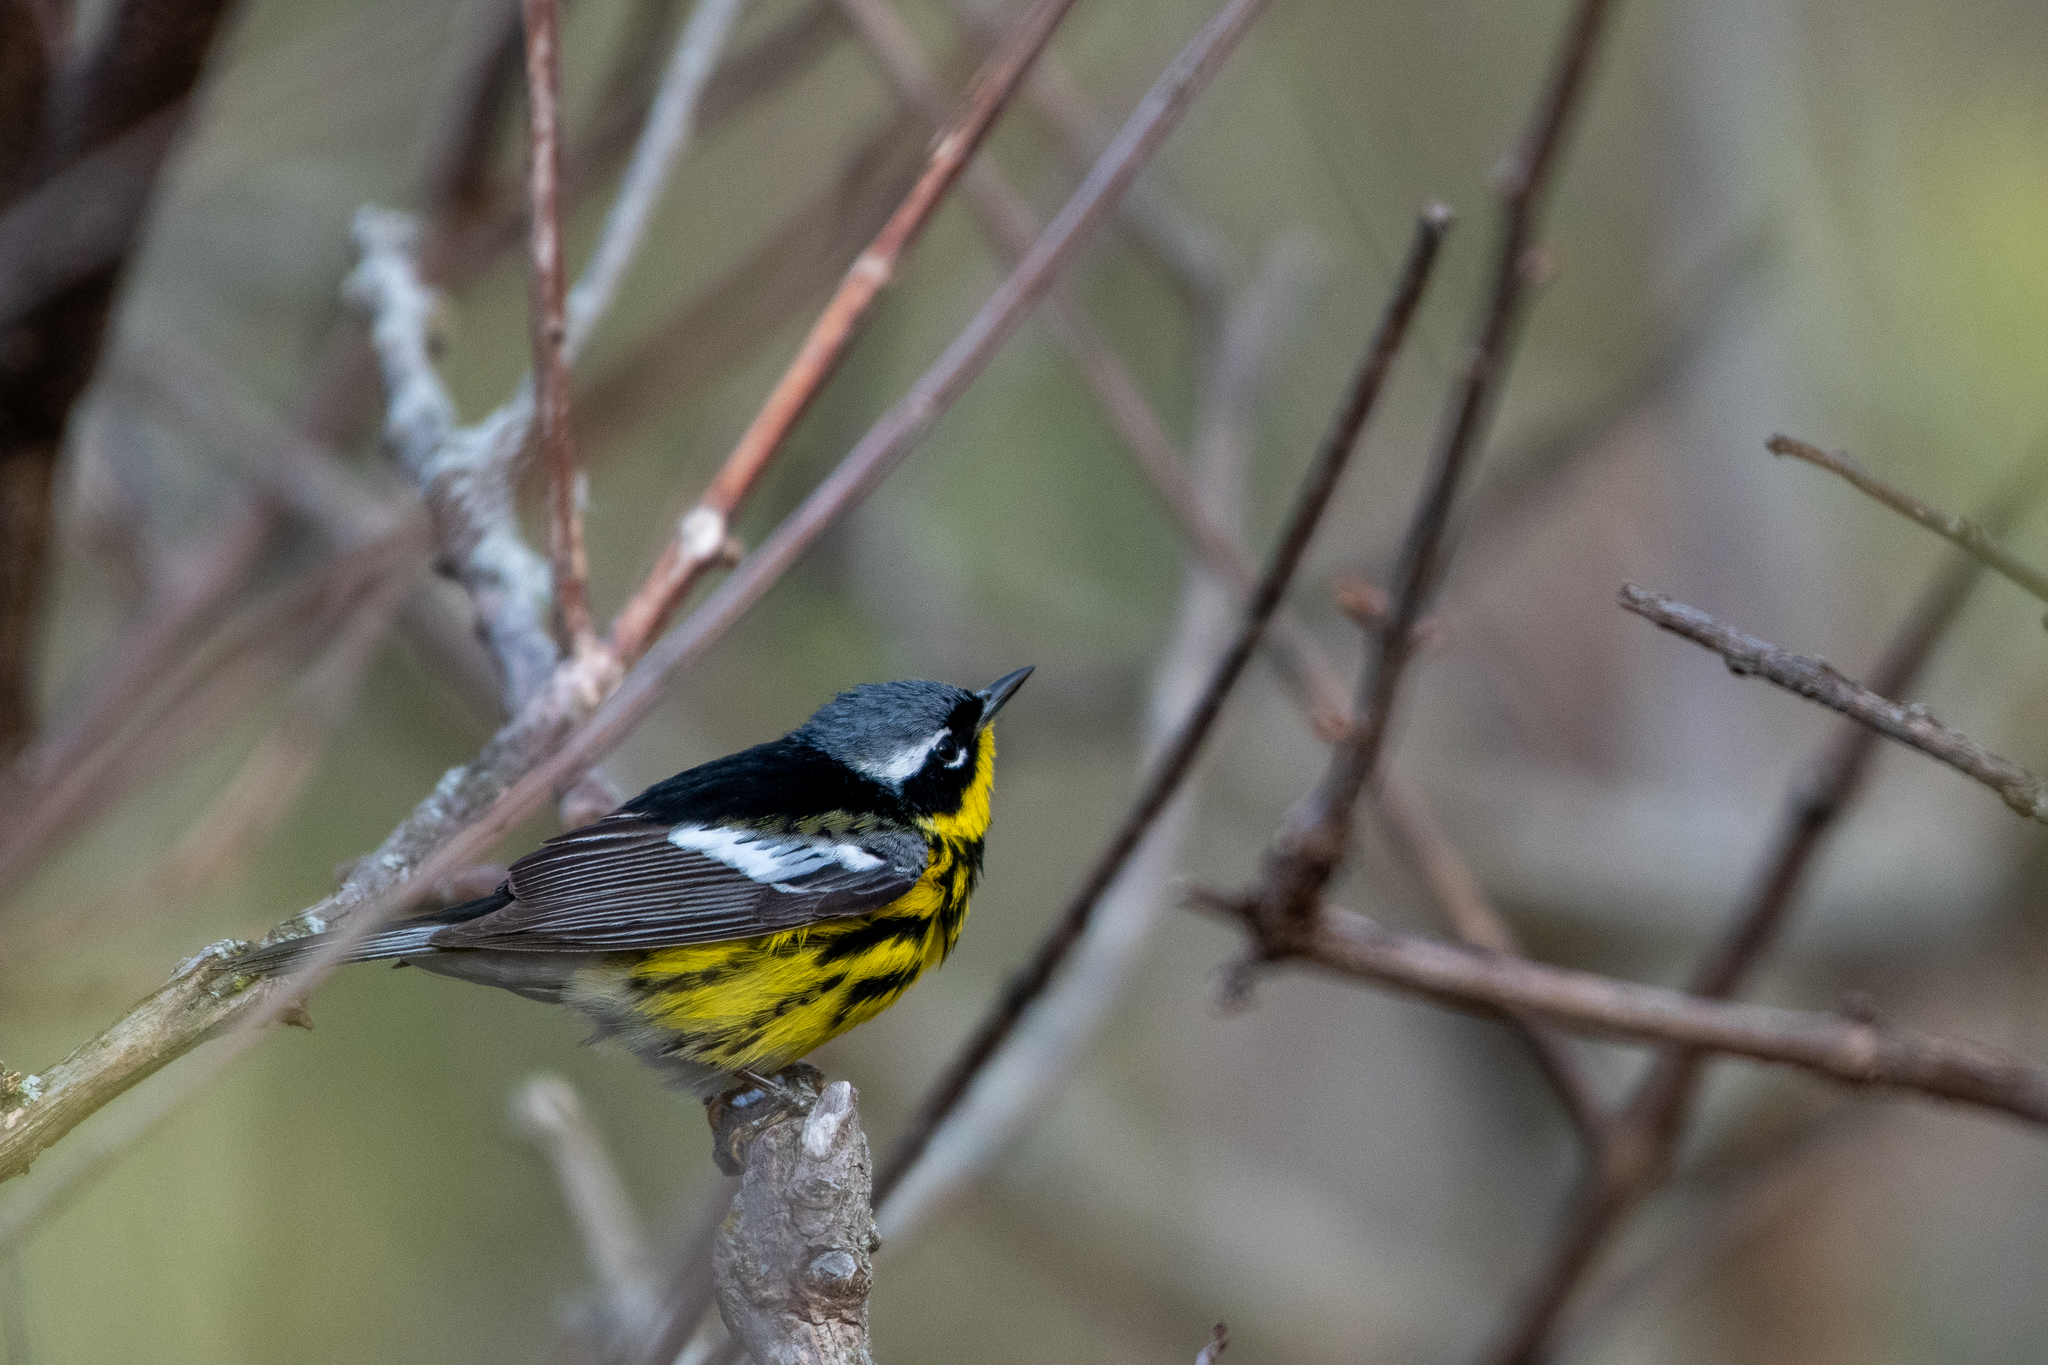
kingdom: Animalia
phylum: Chordata
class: Aves
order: Passeriformes
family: Parulidae
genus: Setophaga
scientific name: Setophaga magnolia
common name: Magnolia warbler
